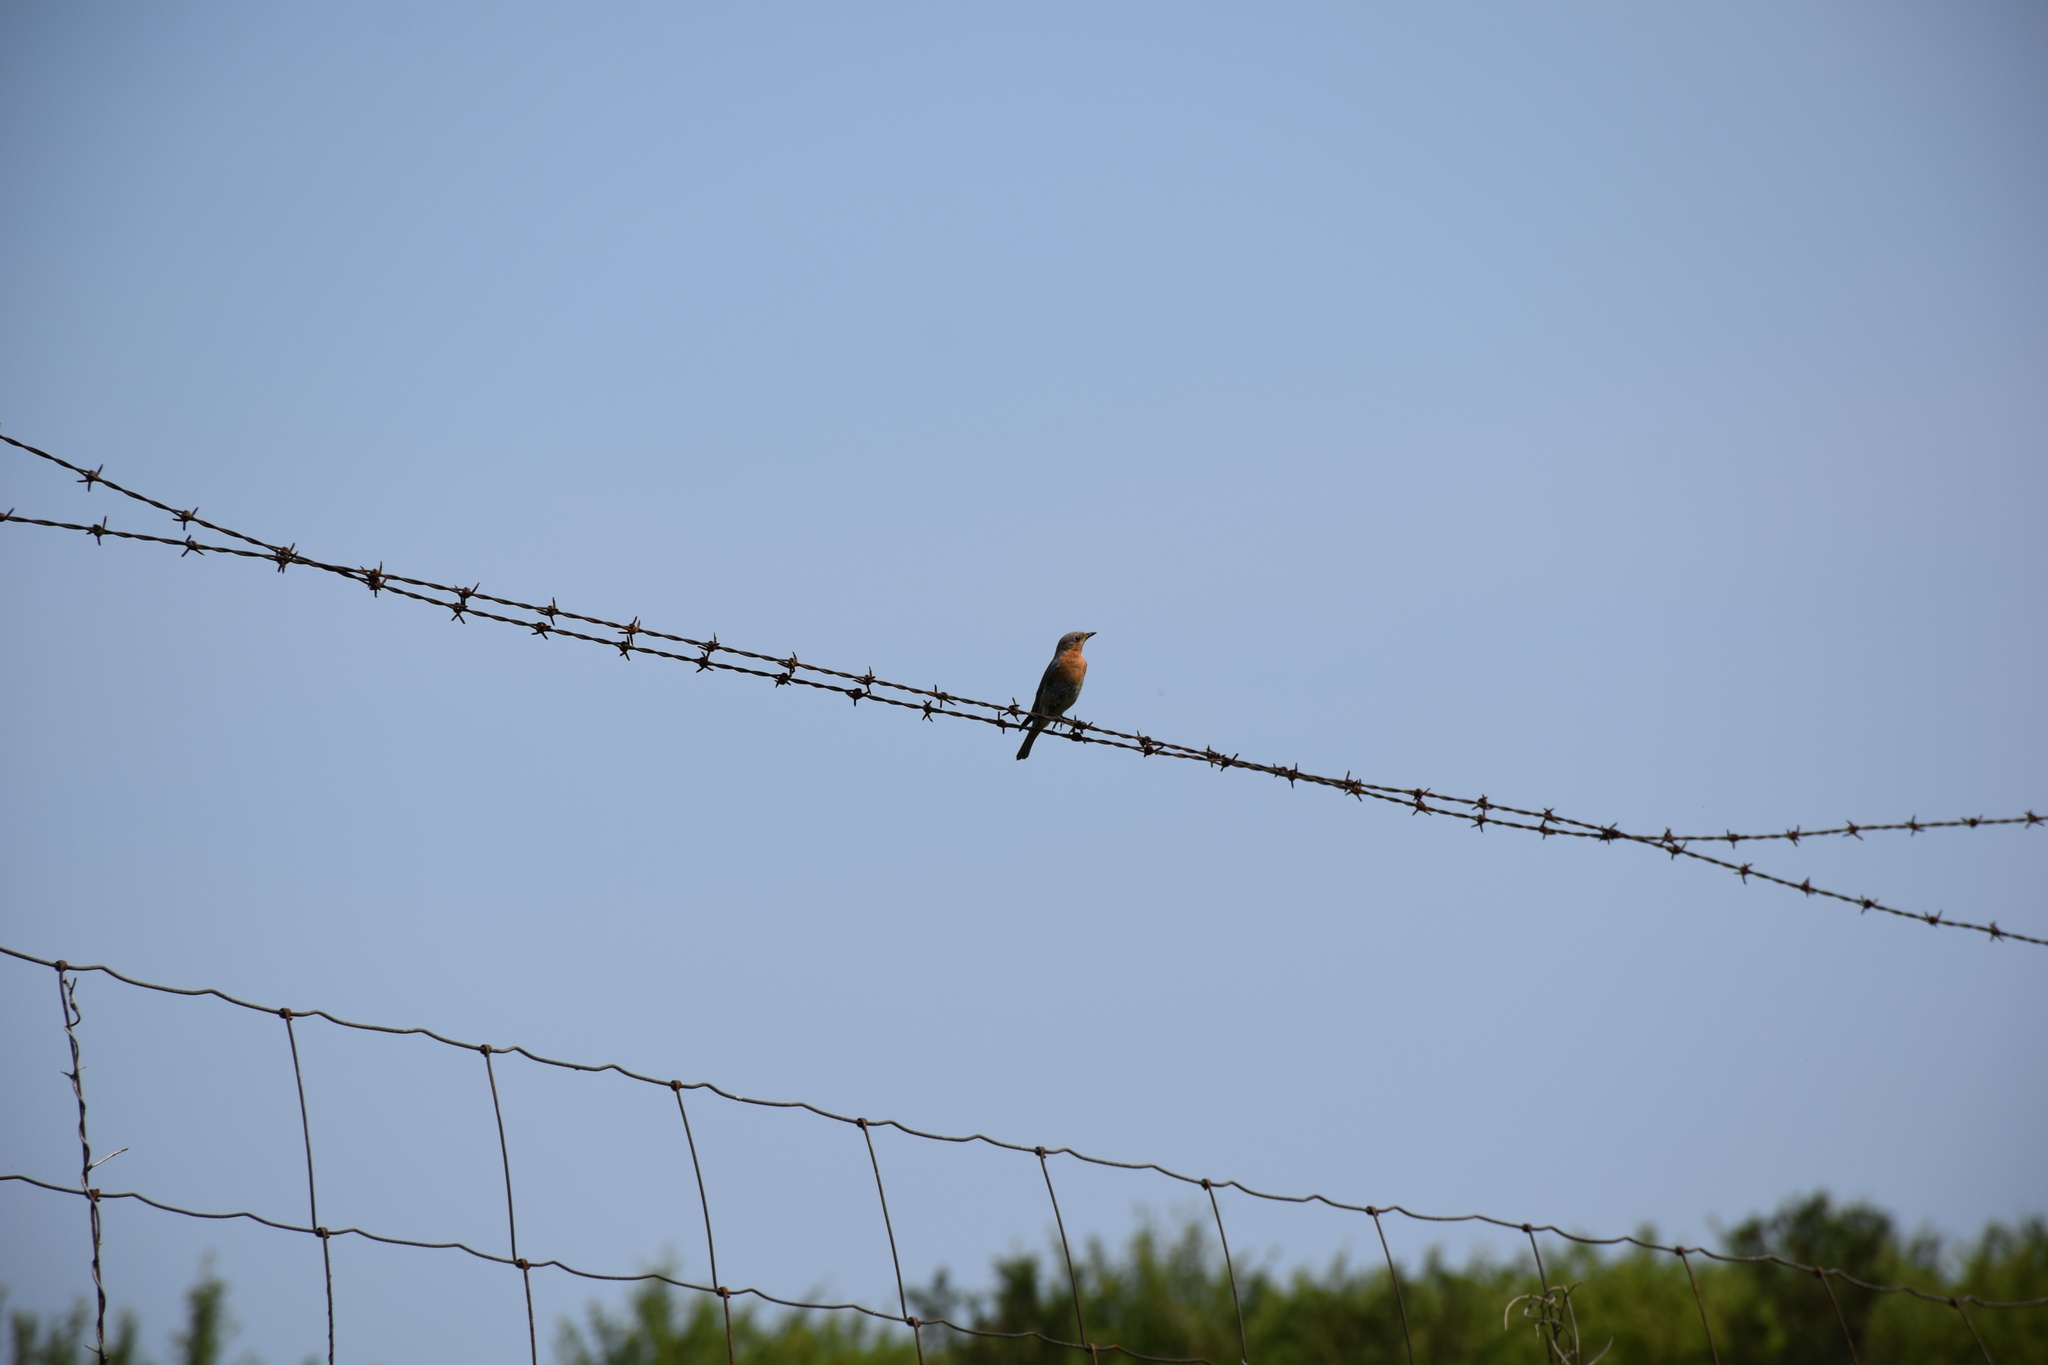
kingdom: Animalia
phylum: Chordata
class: Aves
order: Passeriformes
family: Turdidae
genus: Sialia
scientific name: Sialia sialis
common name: Eastern bluebird
